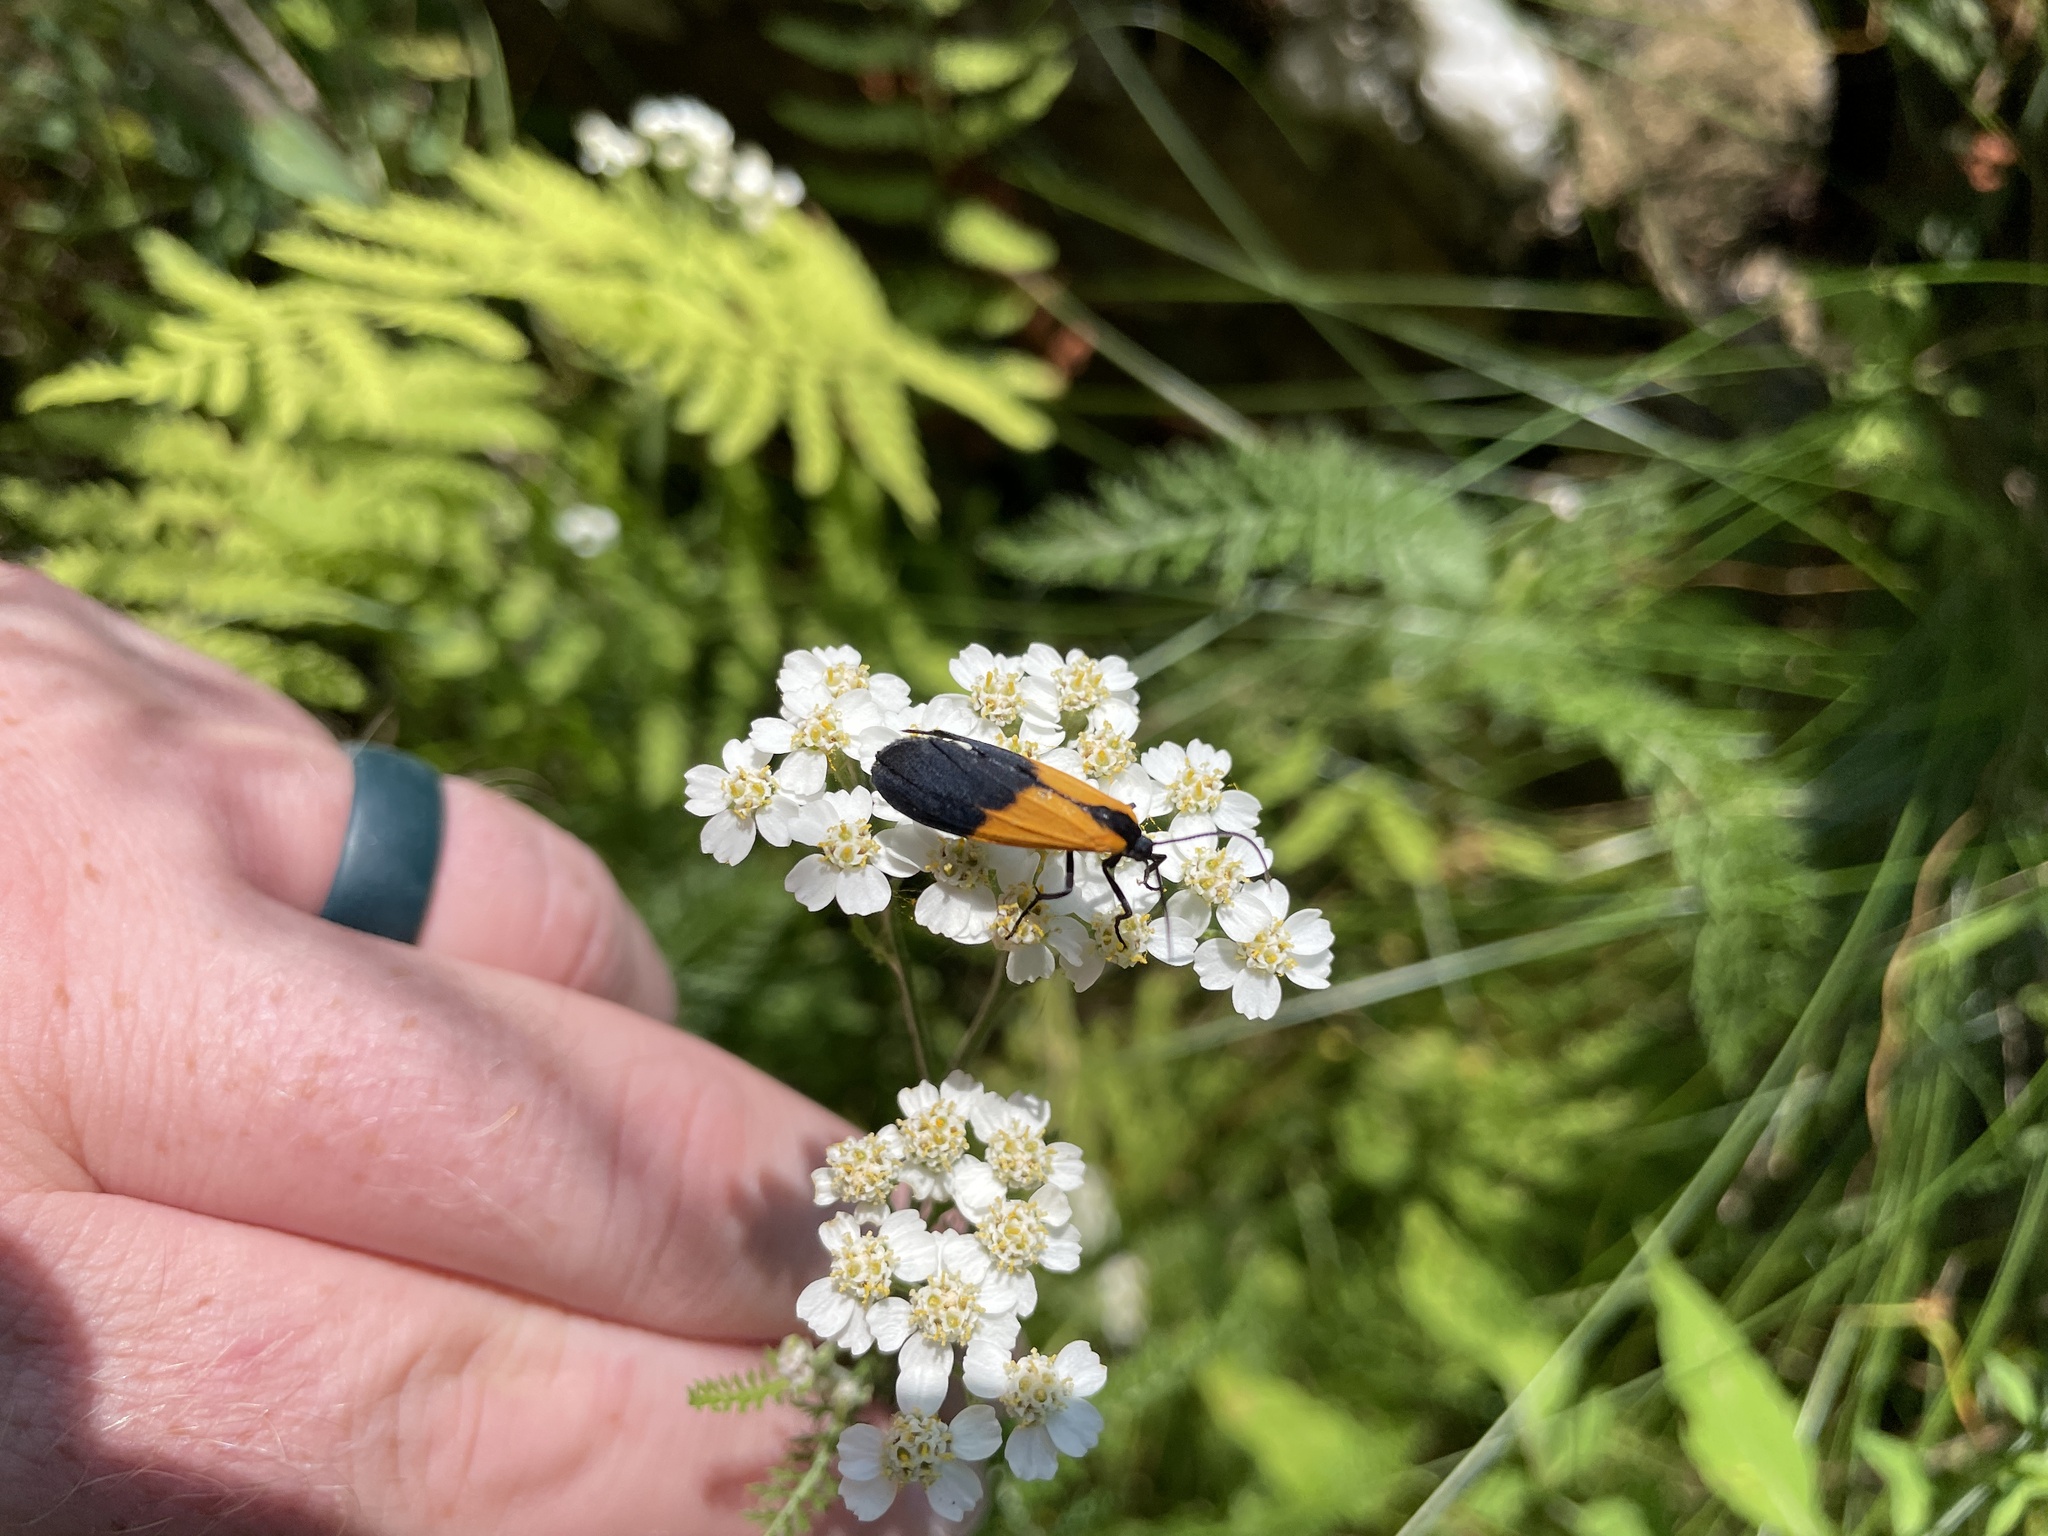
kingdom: Animalia
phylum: Arthropoda
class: Insecta
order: Lepidoptera
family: Erebidae
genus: Lycomorpha
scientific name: Lycomorpha pholus
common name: Black-and-yellow lichen moth
